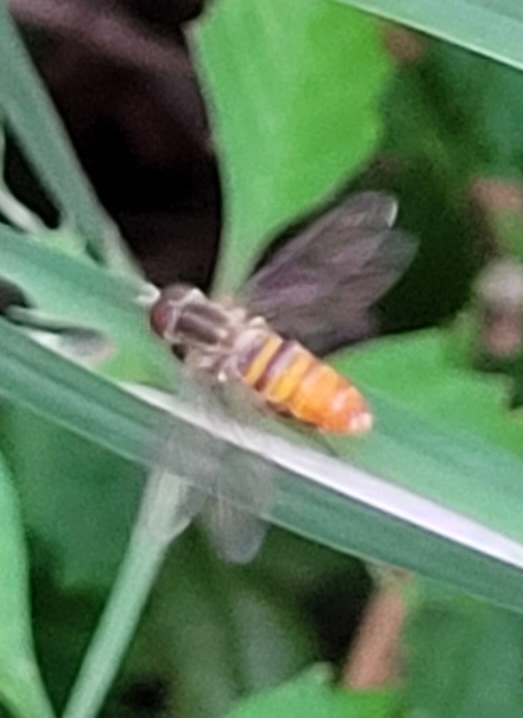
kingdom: Animalia
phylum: Arthropoda
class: Insecta
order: Diptera
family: Syrphidae
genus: Toxomerus
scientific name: Toxomerus politus
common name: Maize calligrapher
